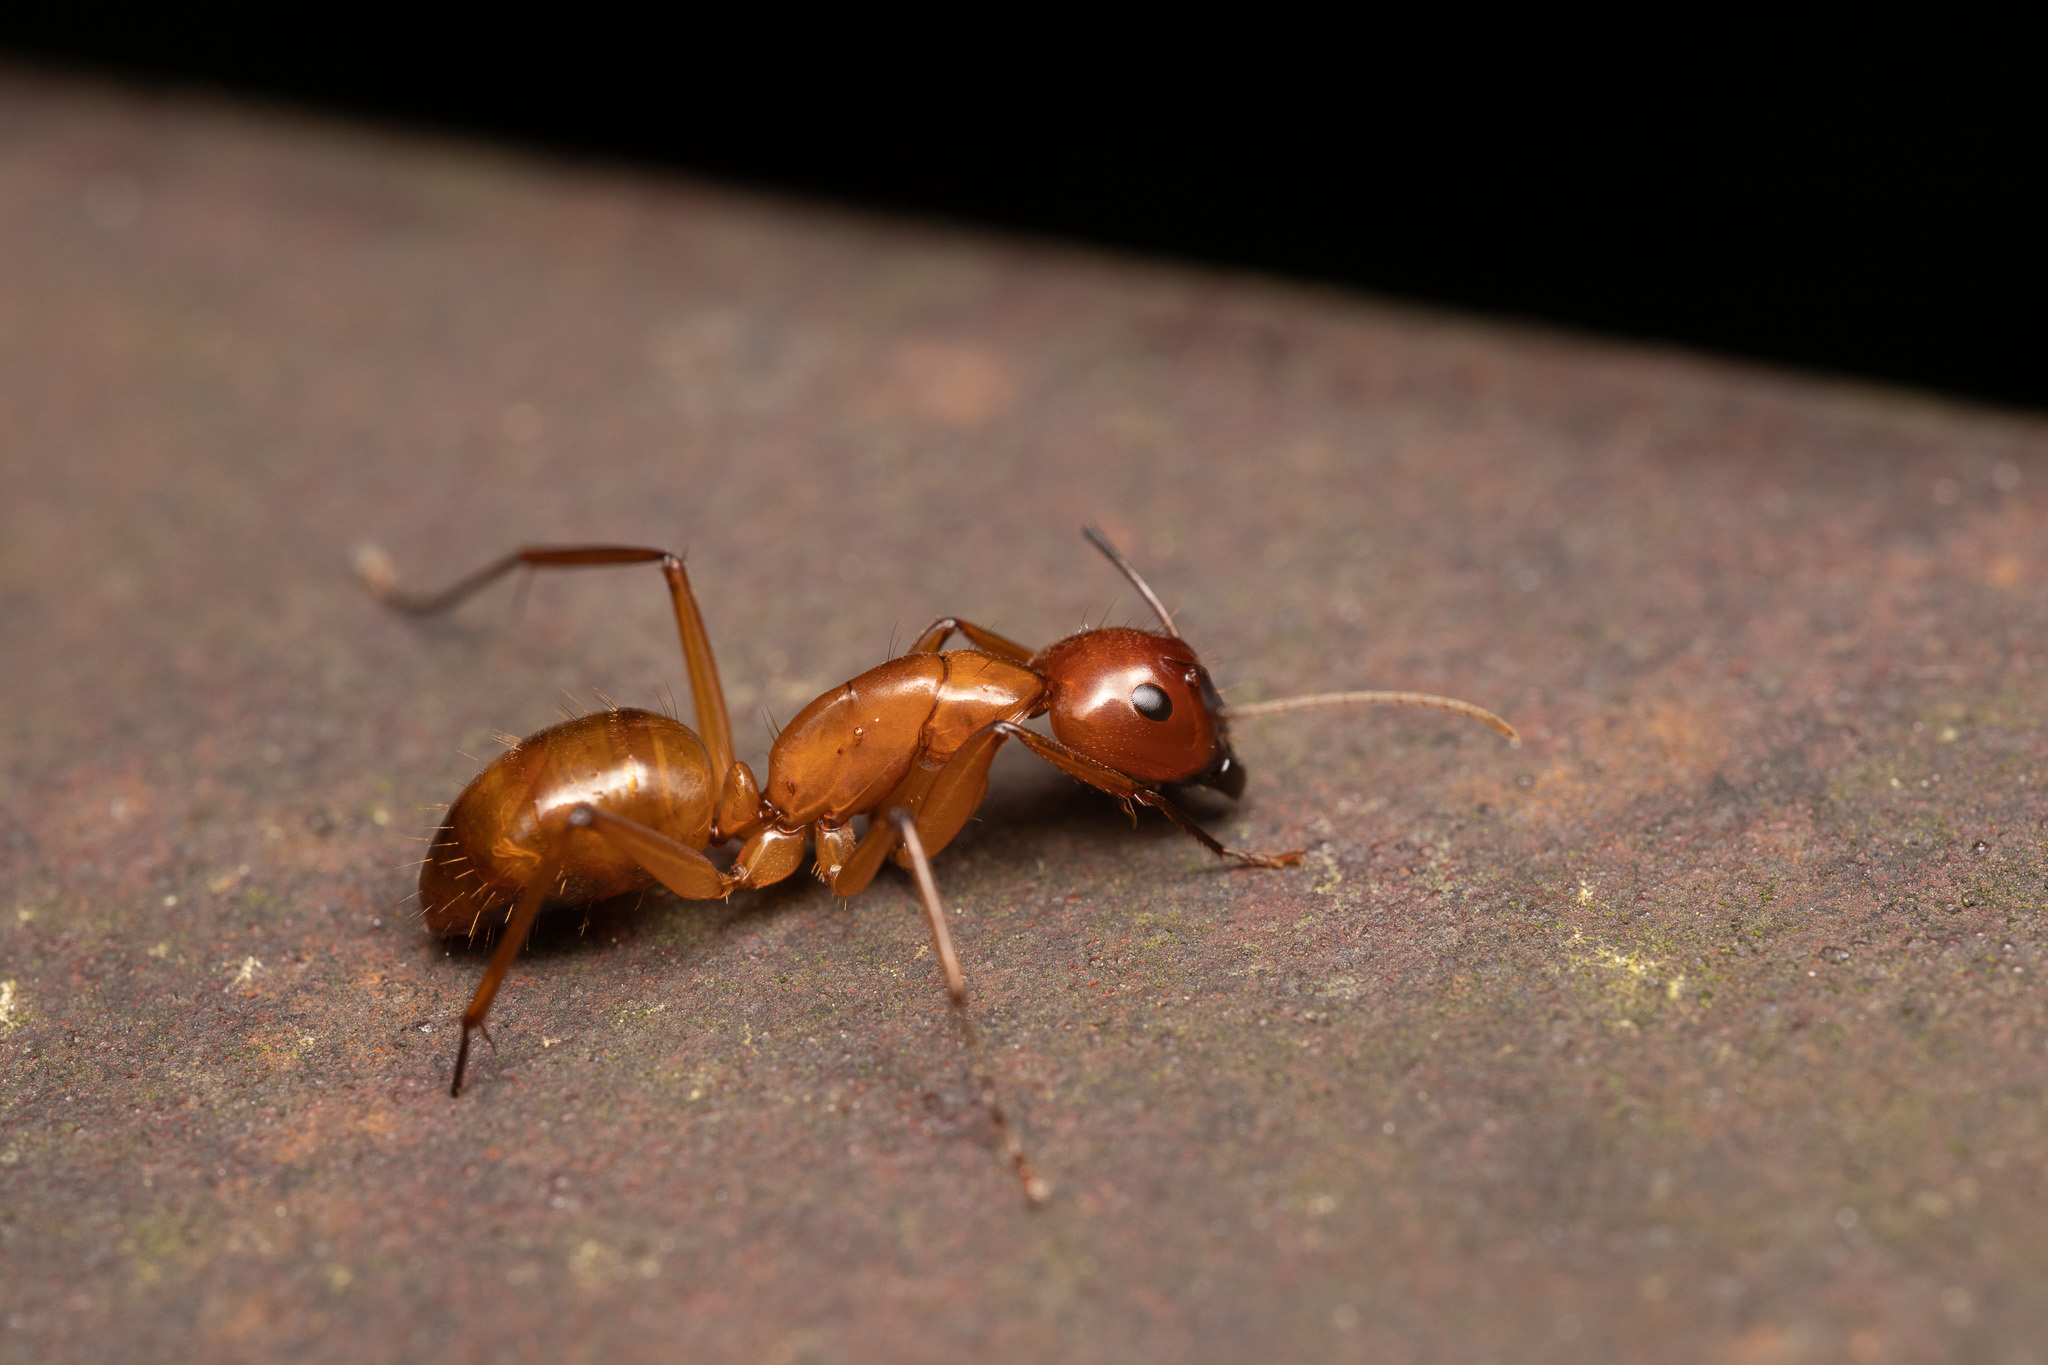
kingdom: Animalia
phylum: Arthropoda
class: Insecta
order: Hymenoptera
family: Formicidae
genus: Camponotus
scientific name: Camponotus castaneus
